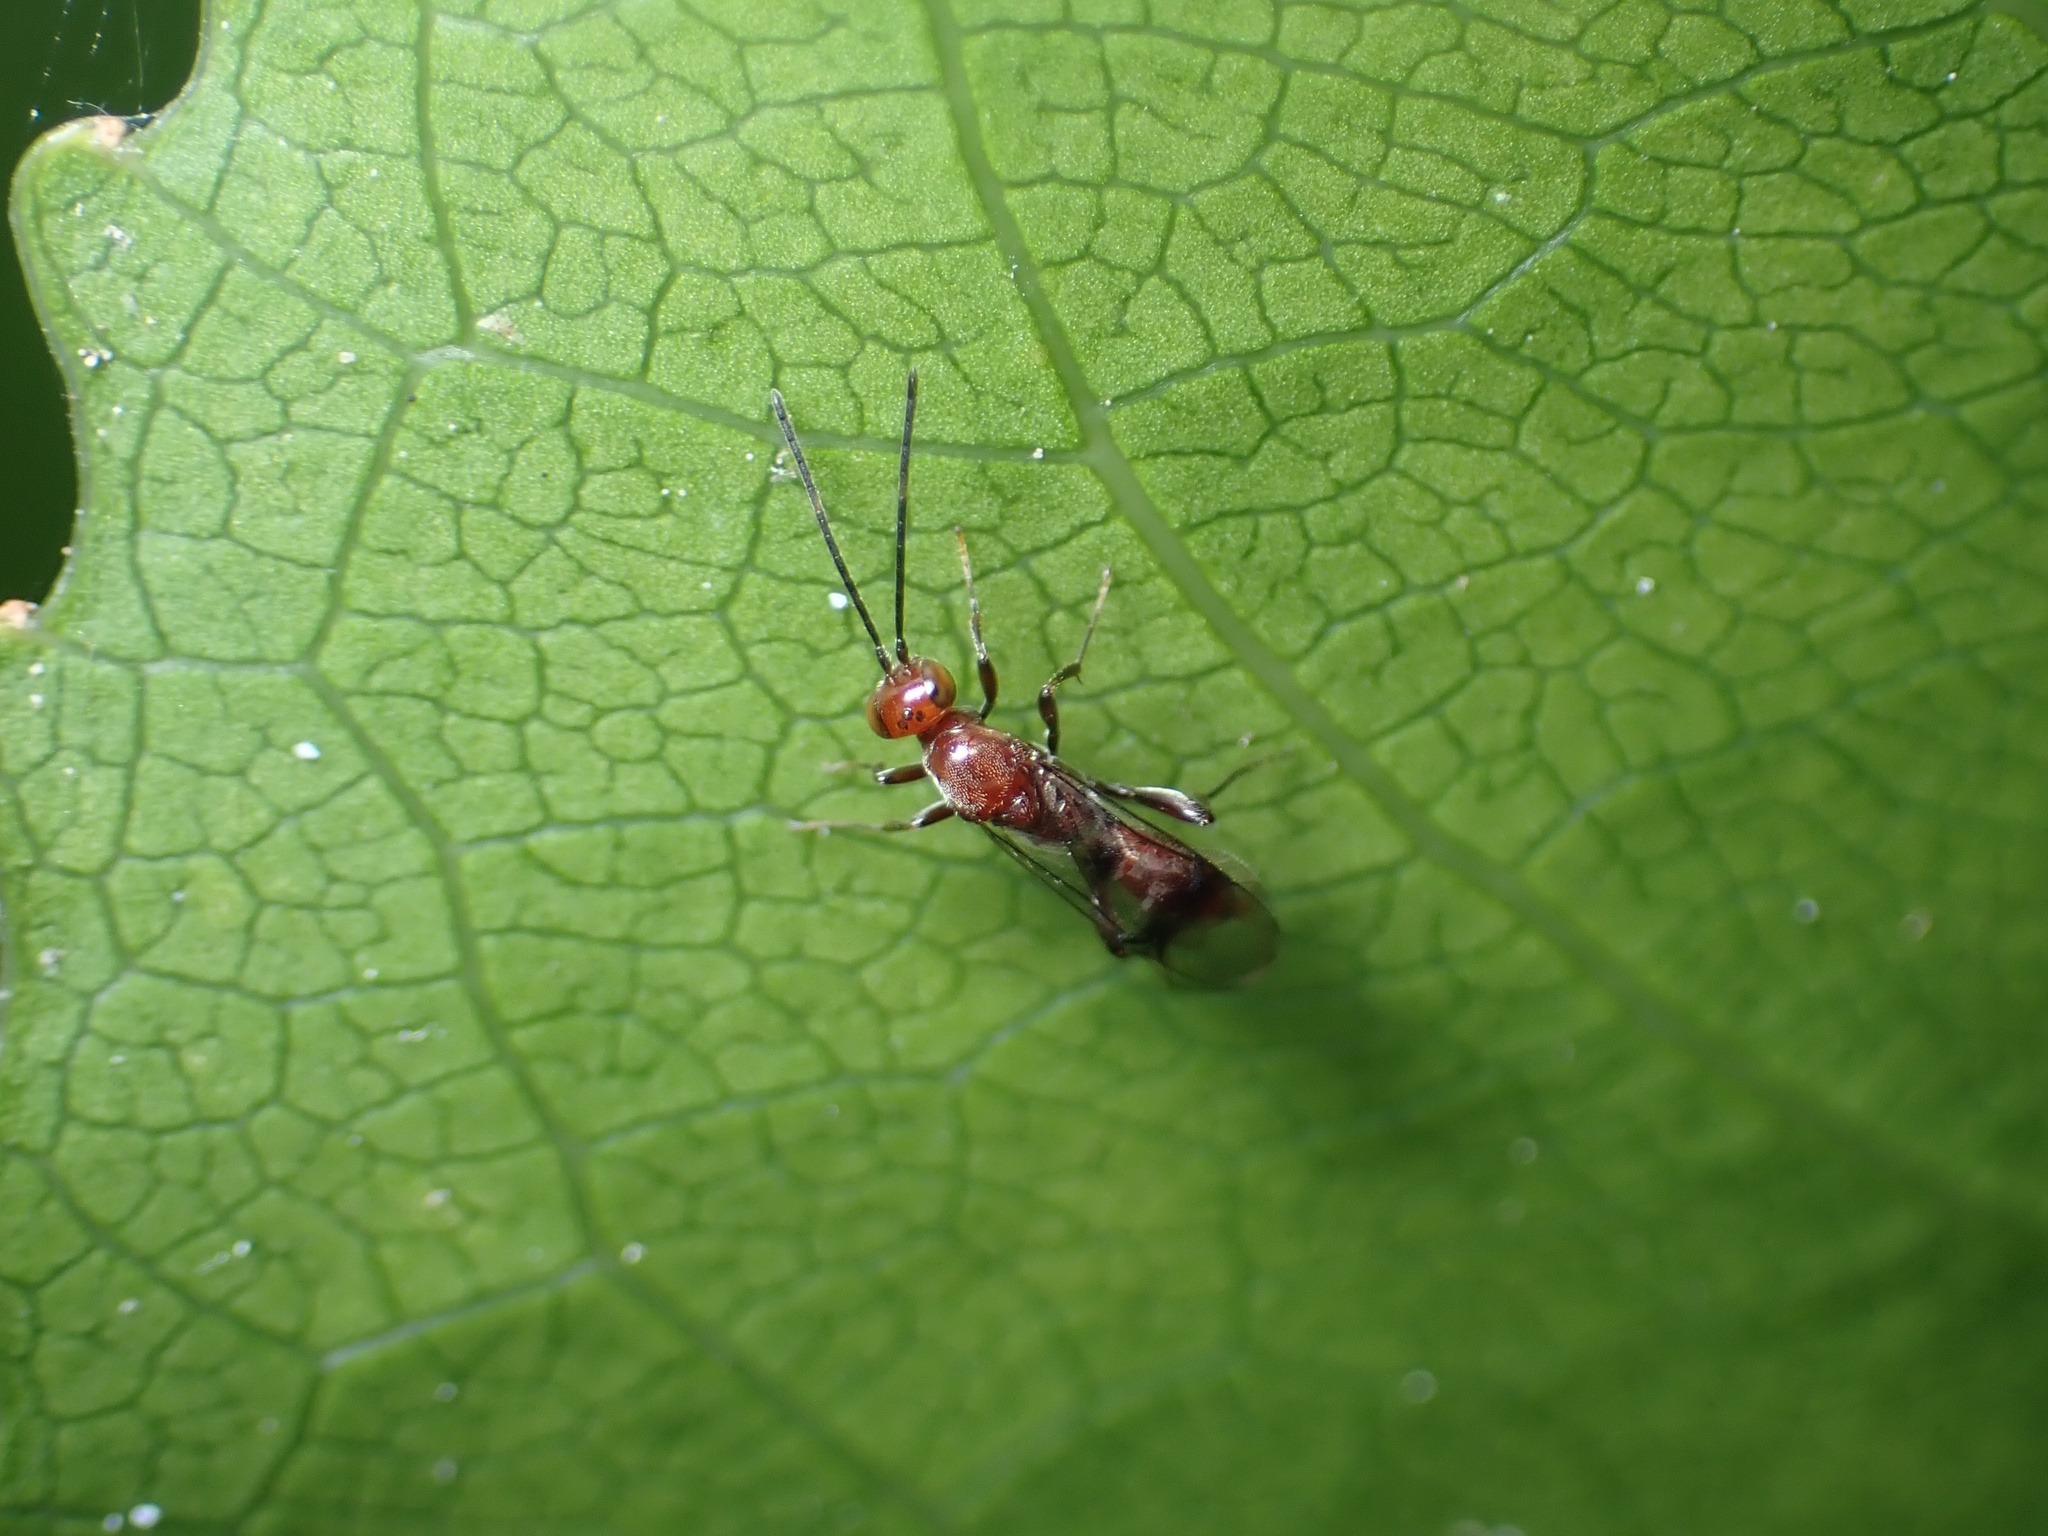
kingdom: Animalia
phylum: Arthropoda
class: Insecta
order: Hymenoptera
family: Proctotrupidae
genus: Fustiserphus
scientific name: Fustiserphus
